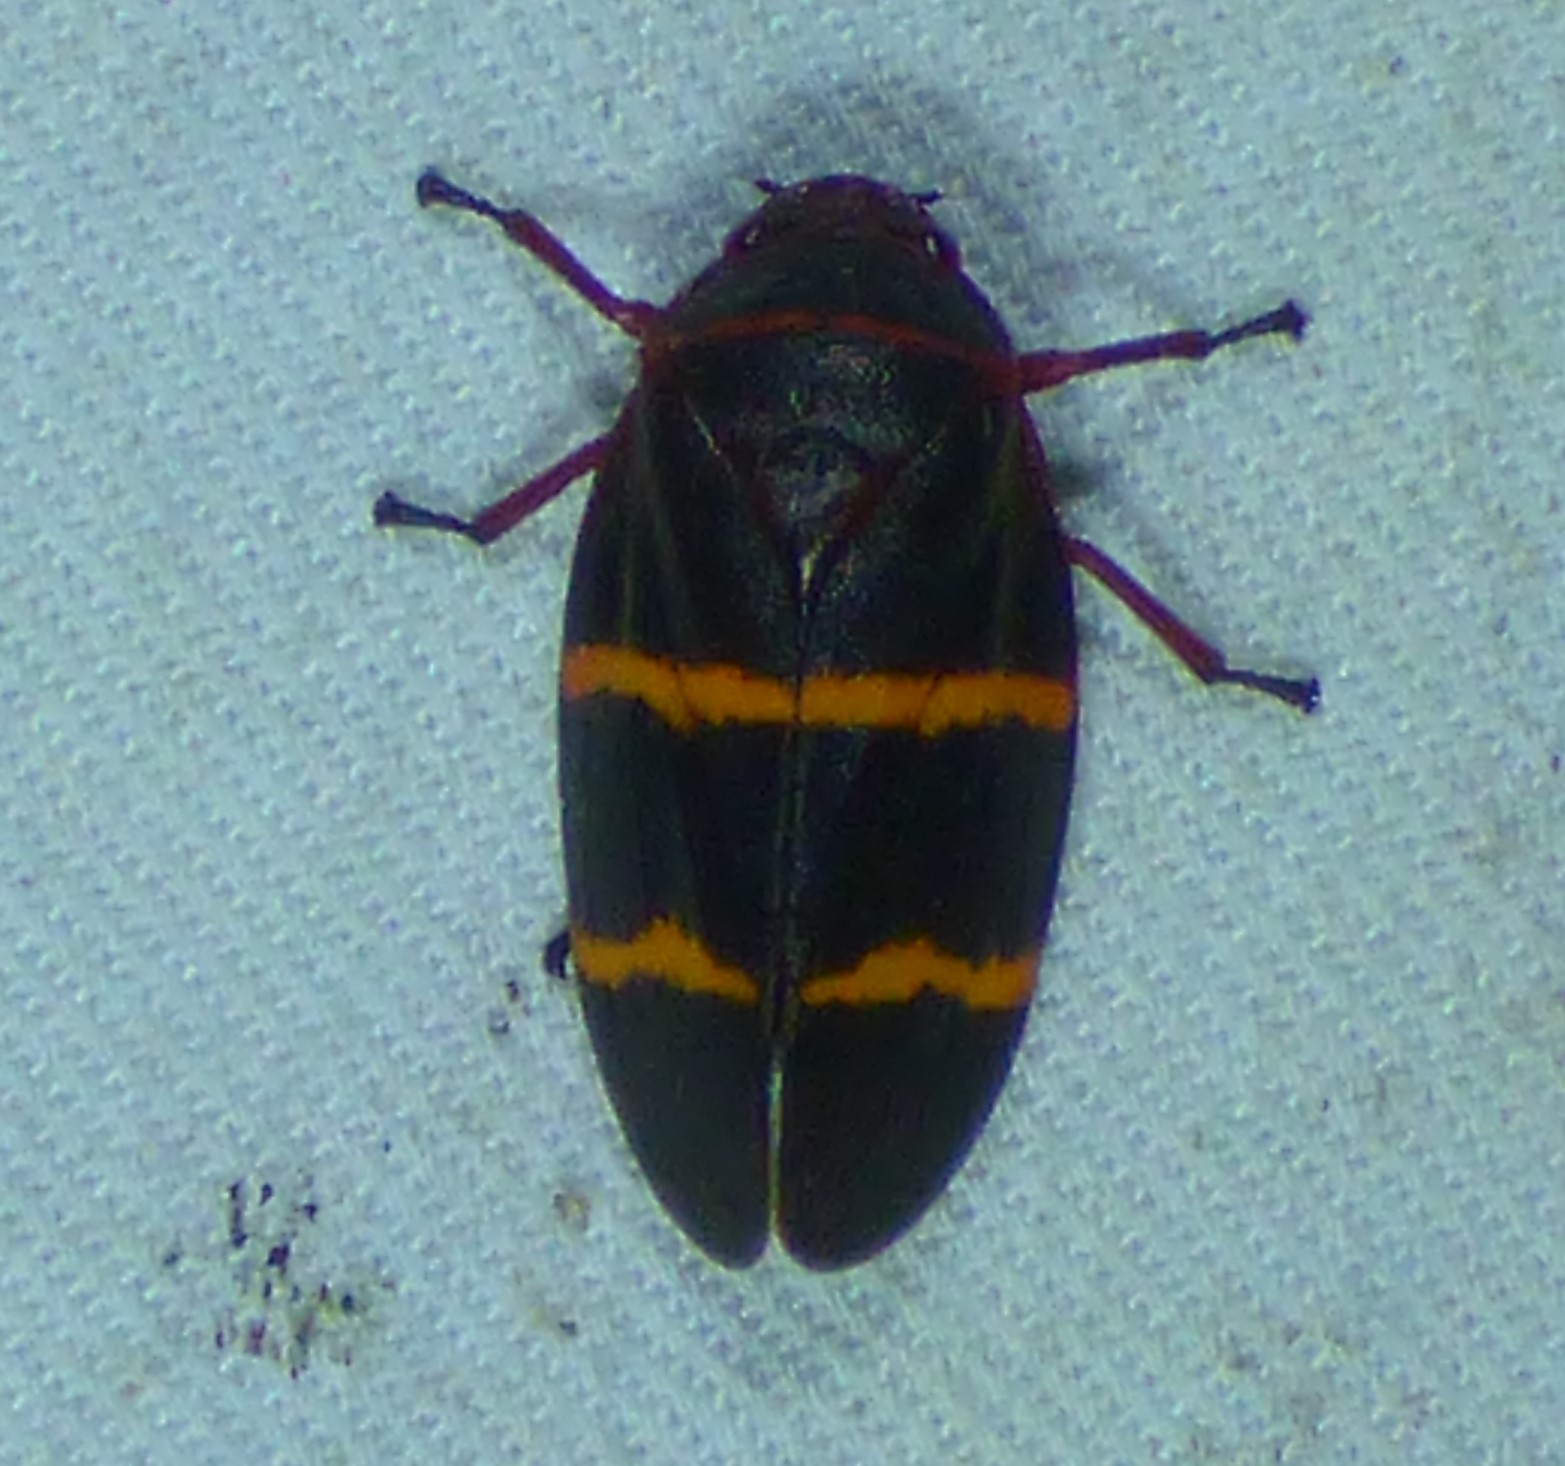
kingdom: Animalia
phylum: Arthropoda
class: Insecta
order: Hemiptera
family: Cercopidae
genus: Prosapia
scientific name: Prosapia bicincta
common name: Twolined spittlebug
